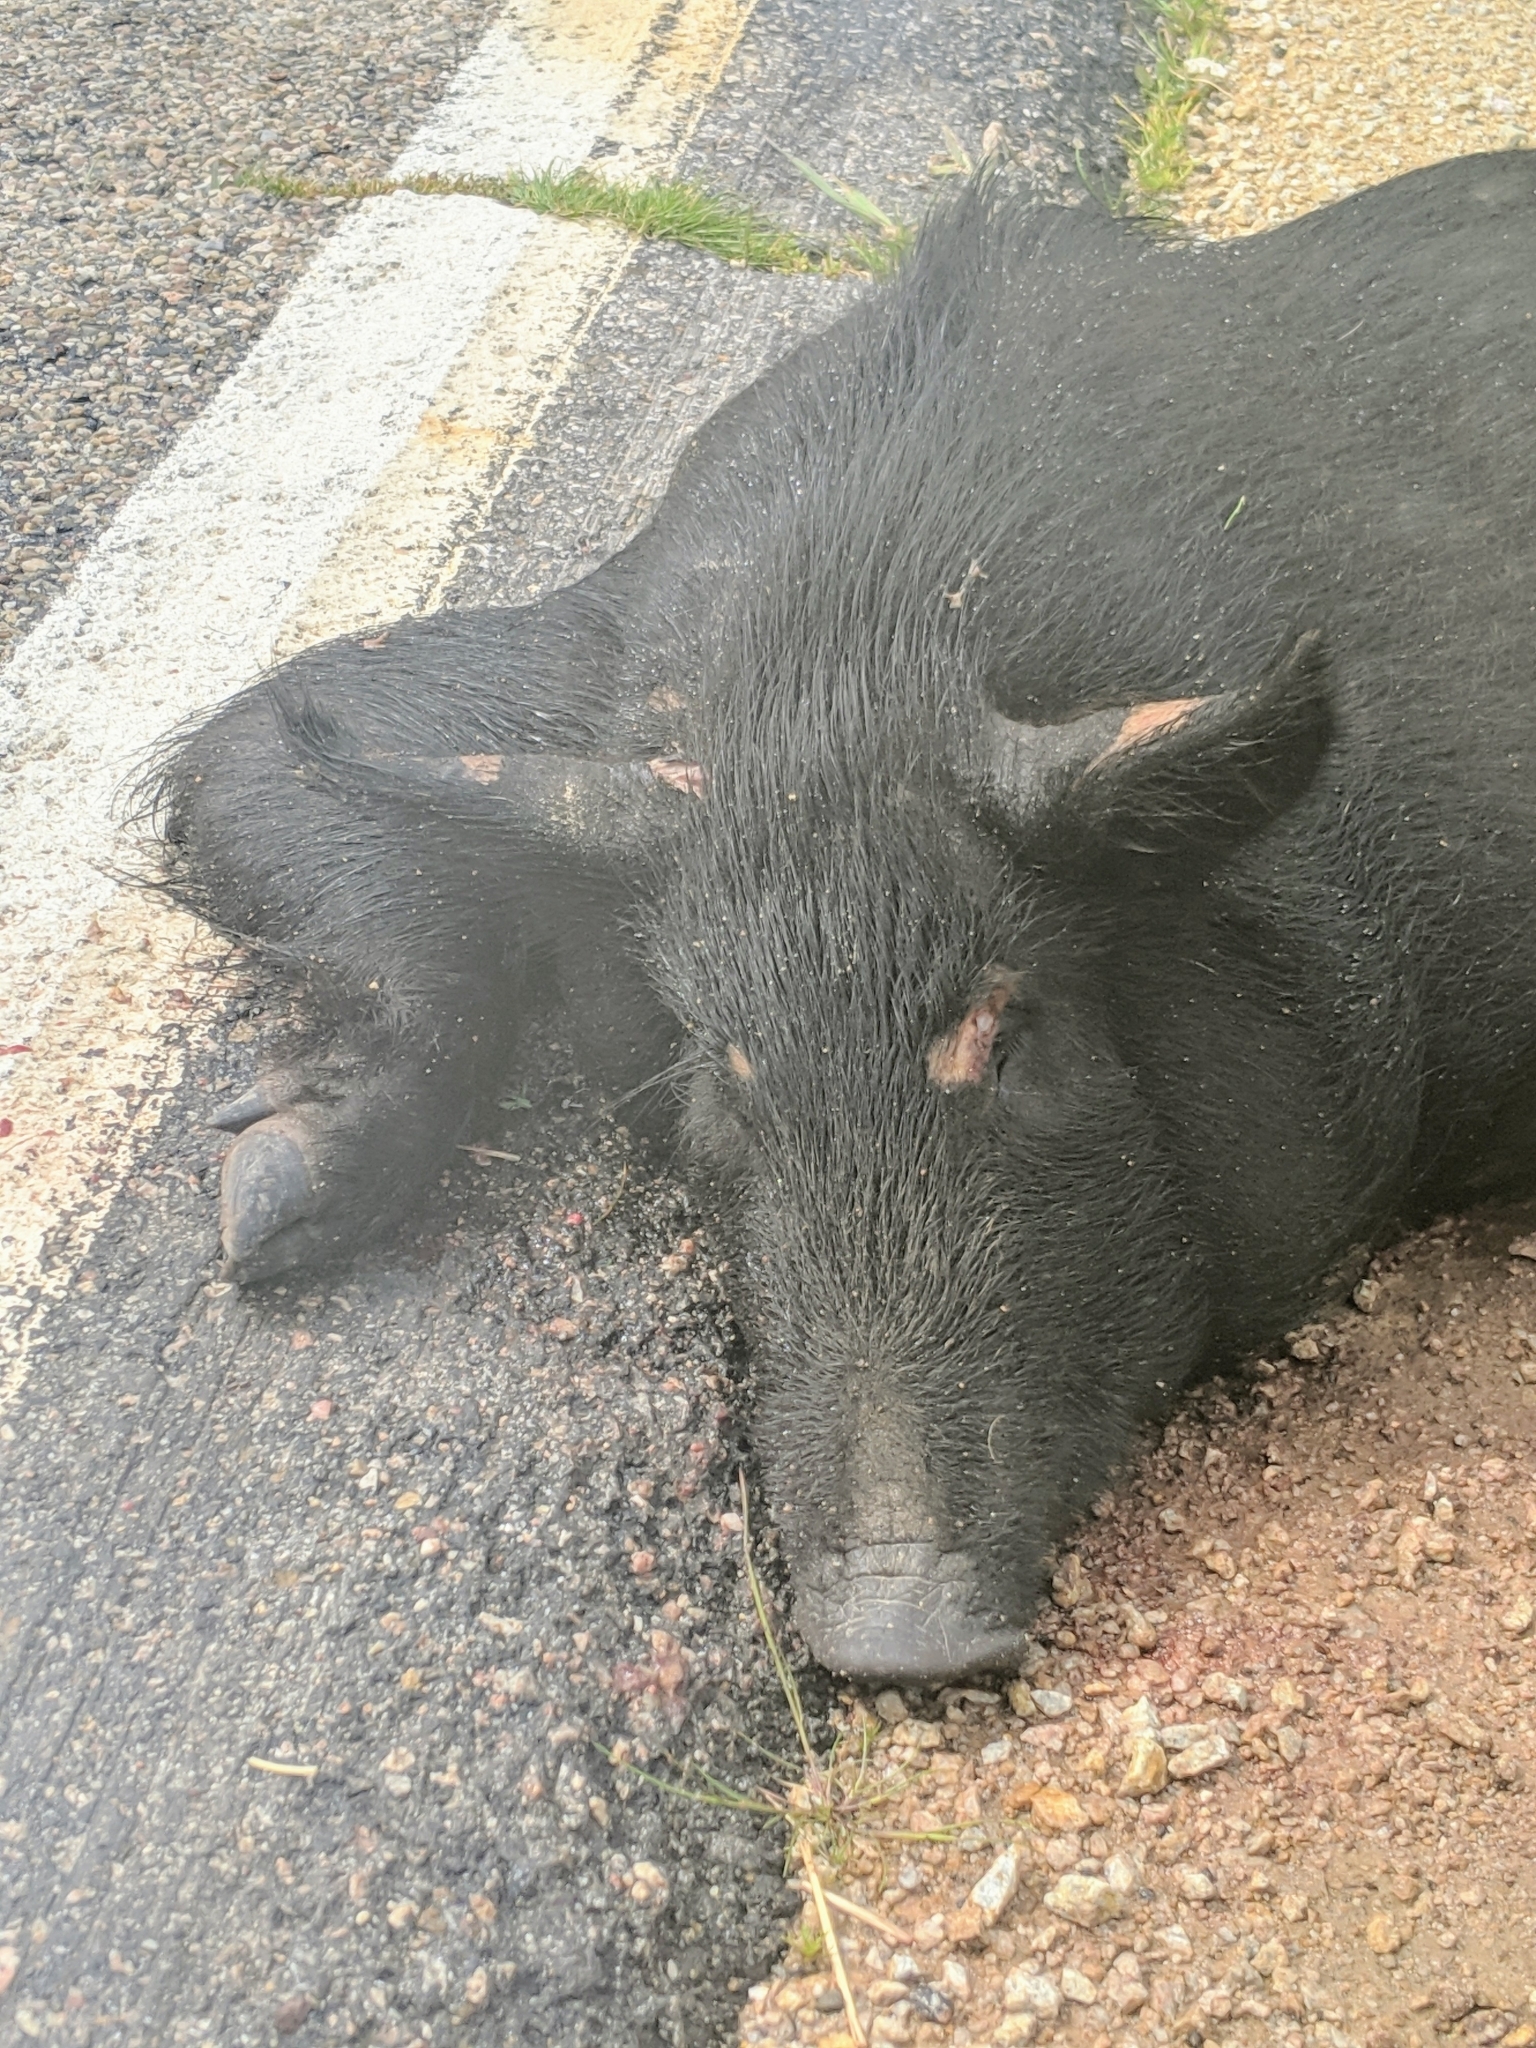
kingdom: Animalia
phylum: Chordata
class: Mammalia
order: Artiodactyla
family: Suidae
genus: Sus
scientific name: Sus scrofa
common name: Wild boar
